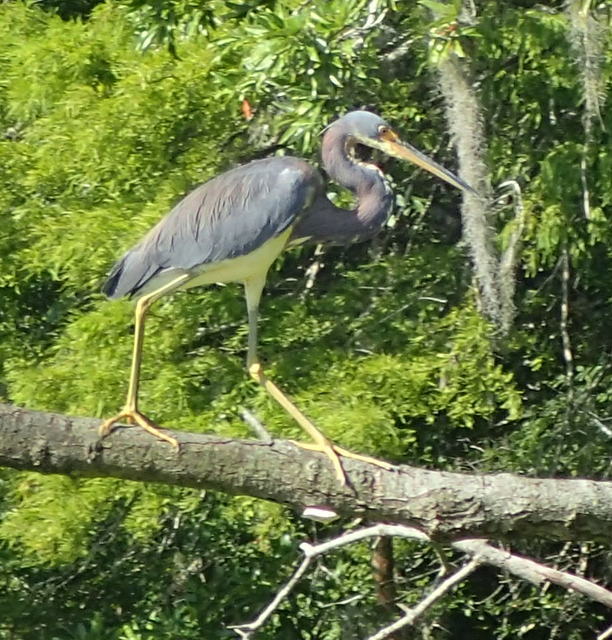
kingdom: Animalia
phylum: Chordata
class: Aves
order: Pelecaniformes
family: Ardeidae
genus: Egretta
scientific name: Egretta tricolor
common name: Tricolored heron
